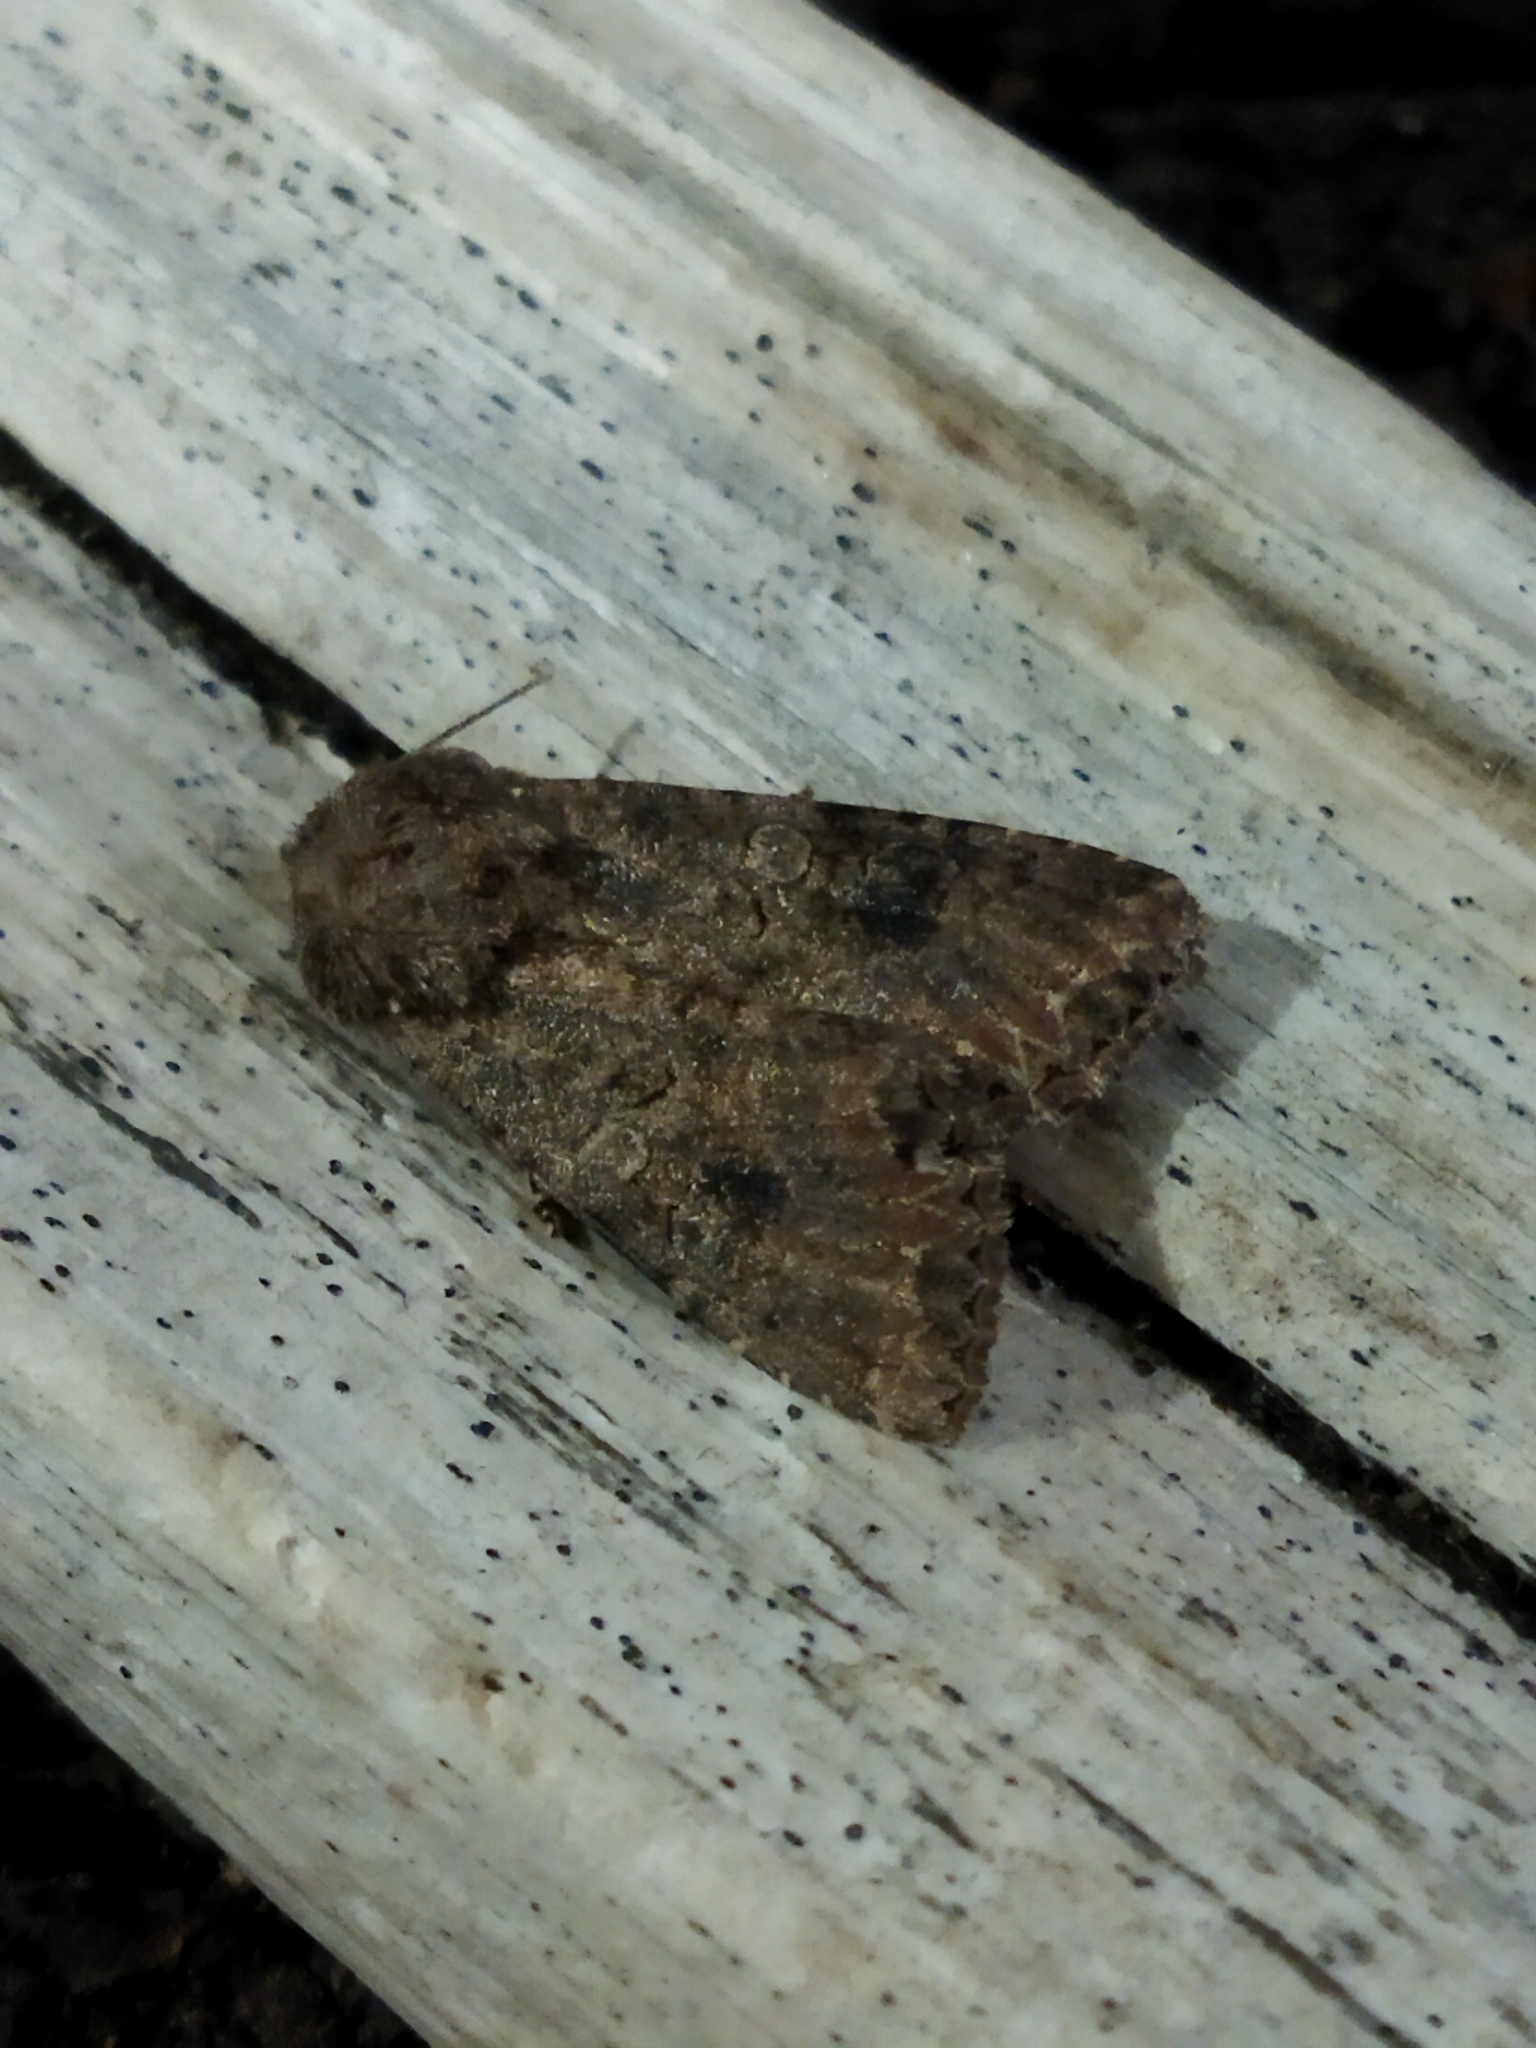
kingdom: Animalia
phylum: Arthropoda
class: Insecta
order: Lepidoptera
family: Noctuidae
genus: Anarta
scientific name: Anarta trifolii
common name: Clover cutworm moth
